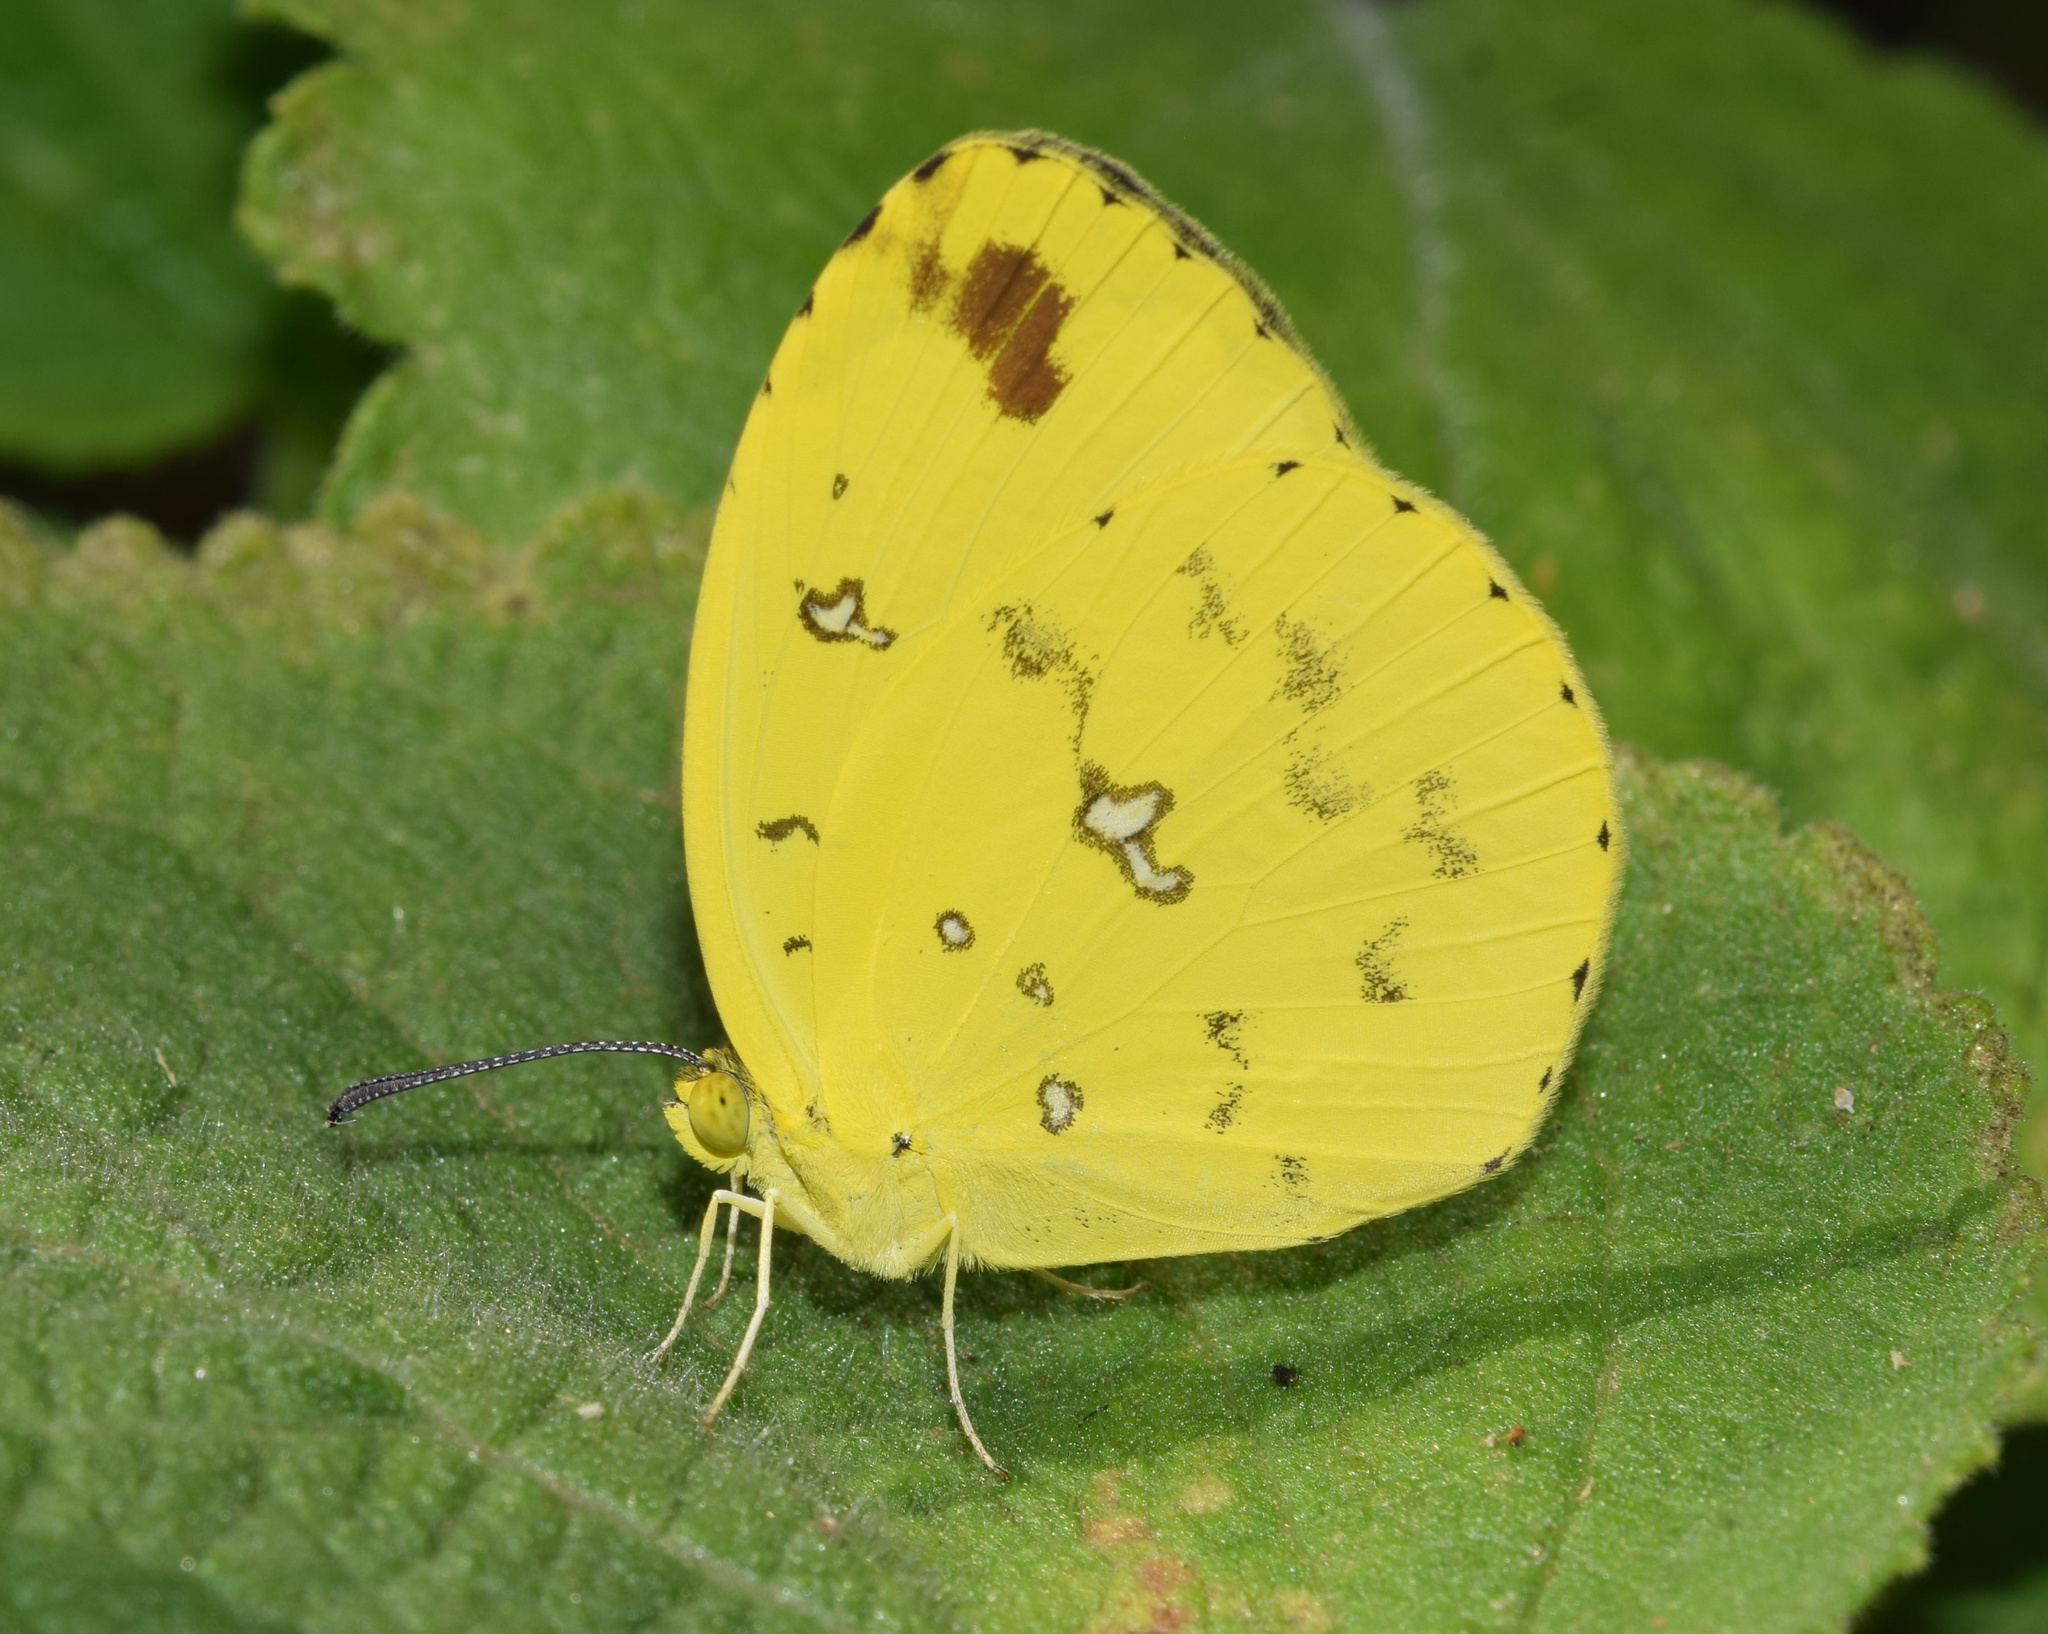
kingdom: Animalia
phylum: Arthropoda
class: Insecta
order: Lepidoptera
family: Pieridae
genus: Eurema
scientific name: Eurema floricola
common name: Malagasy grass yellow
